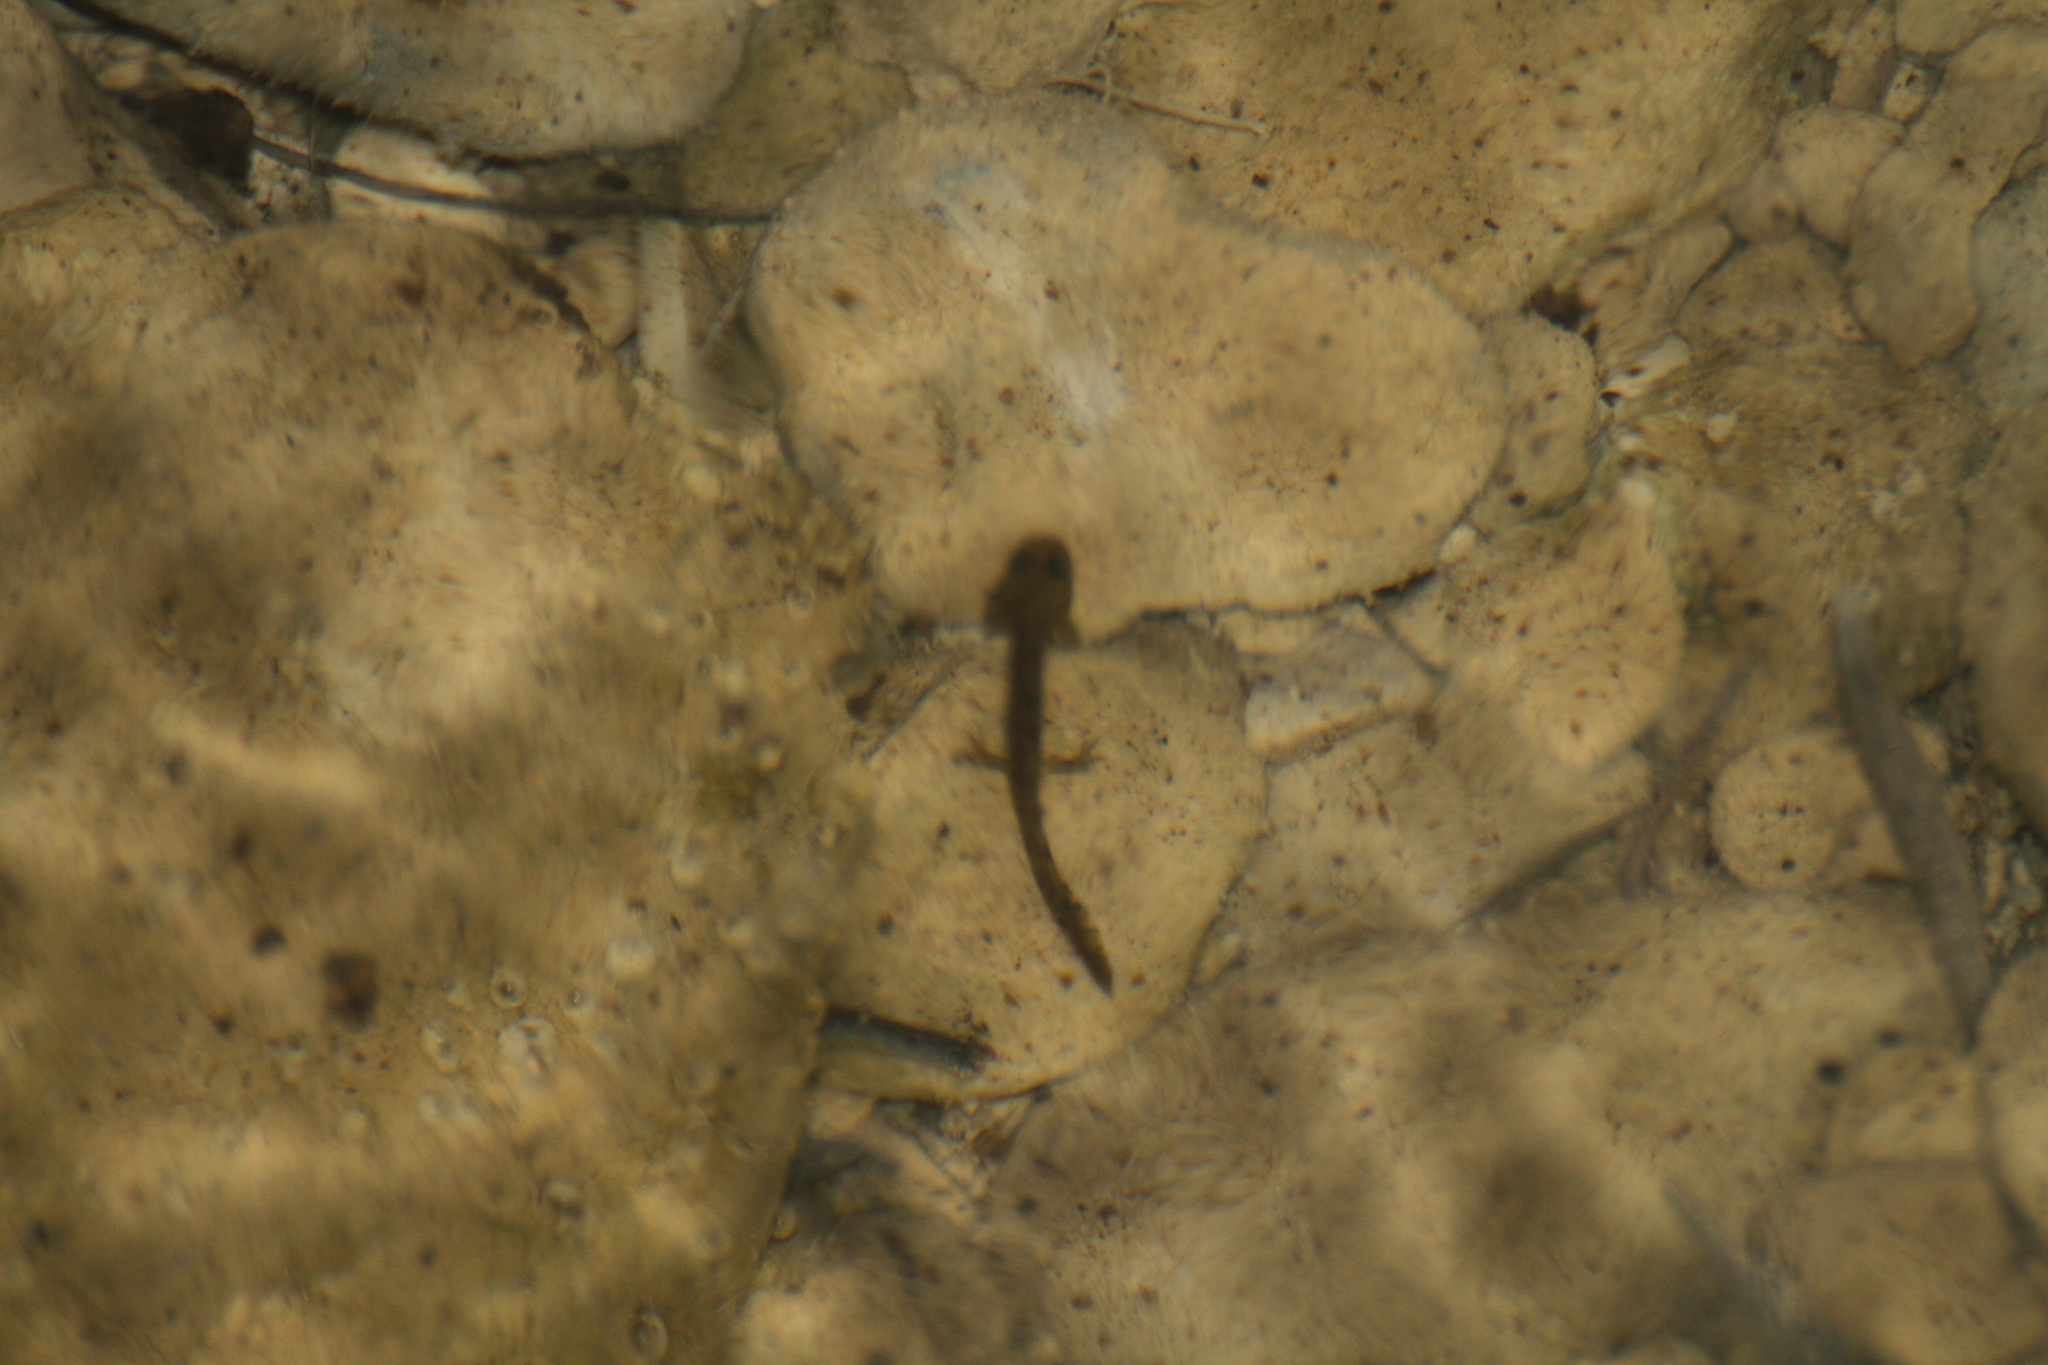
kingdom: Animalia
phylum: Chordata
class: Amphibia
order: Caudata
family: Salamandridae
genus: Salamandra
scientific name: Salamandra salamandra
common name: Fire salamander
